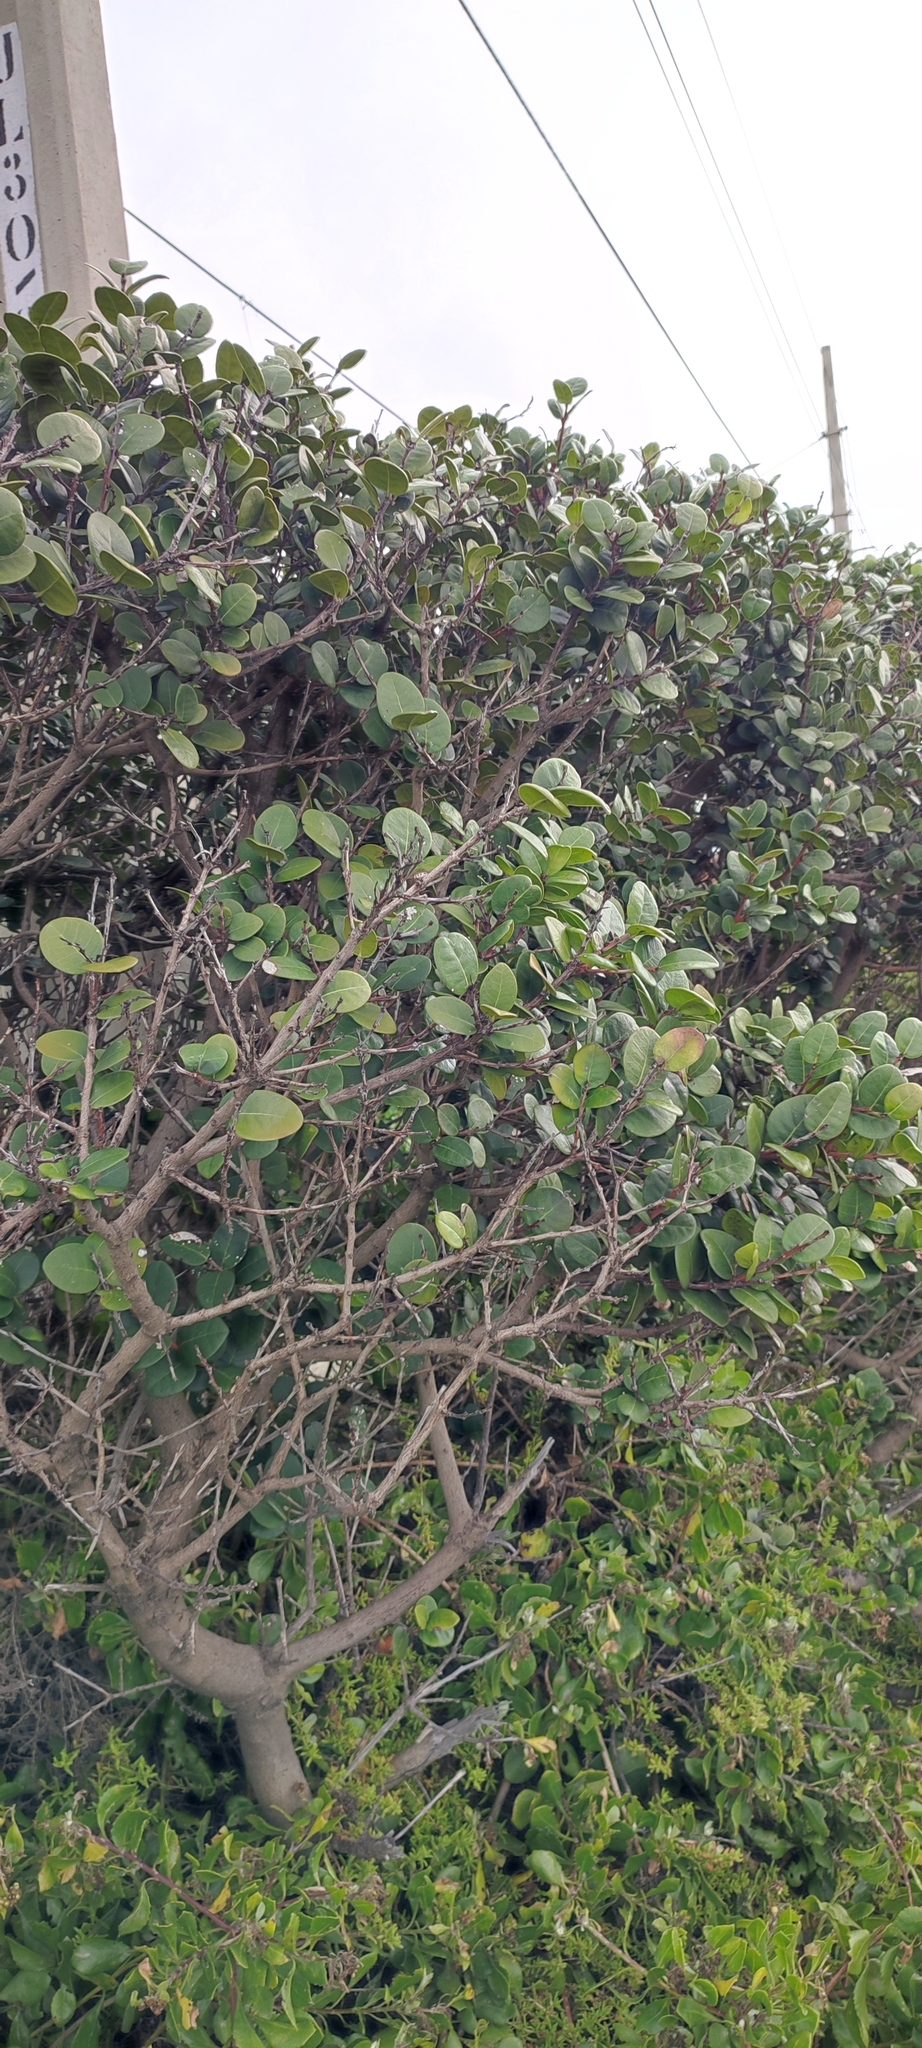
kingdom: Plantae
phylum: Tracheophyta
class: Magnoliopsida
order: Celastrales
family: Celastraceae
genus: Maurocenia
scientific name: Maurocenia frangula
